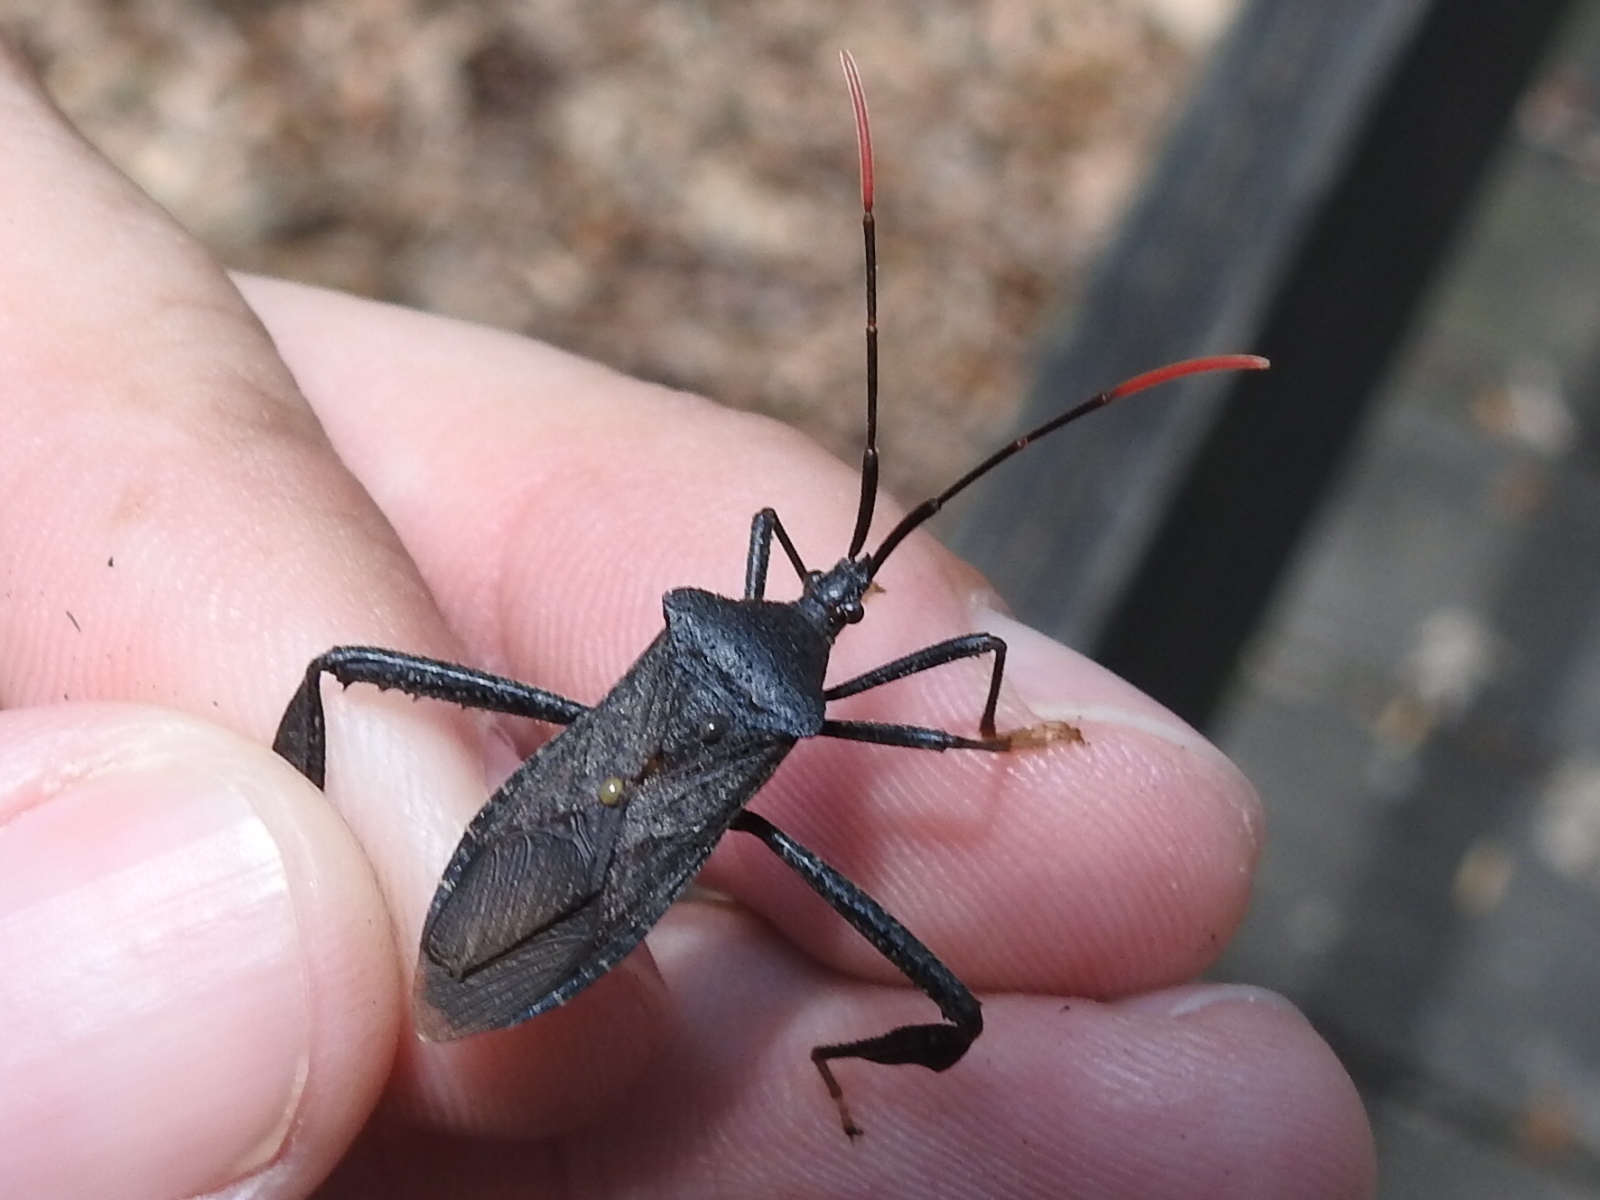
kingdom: Animalia
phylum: Arthropoda
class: Insecta
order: Hemiptera
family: Coreidae
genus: Acanthocephala
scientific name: Acanthocephala terminalis
